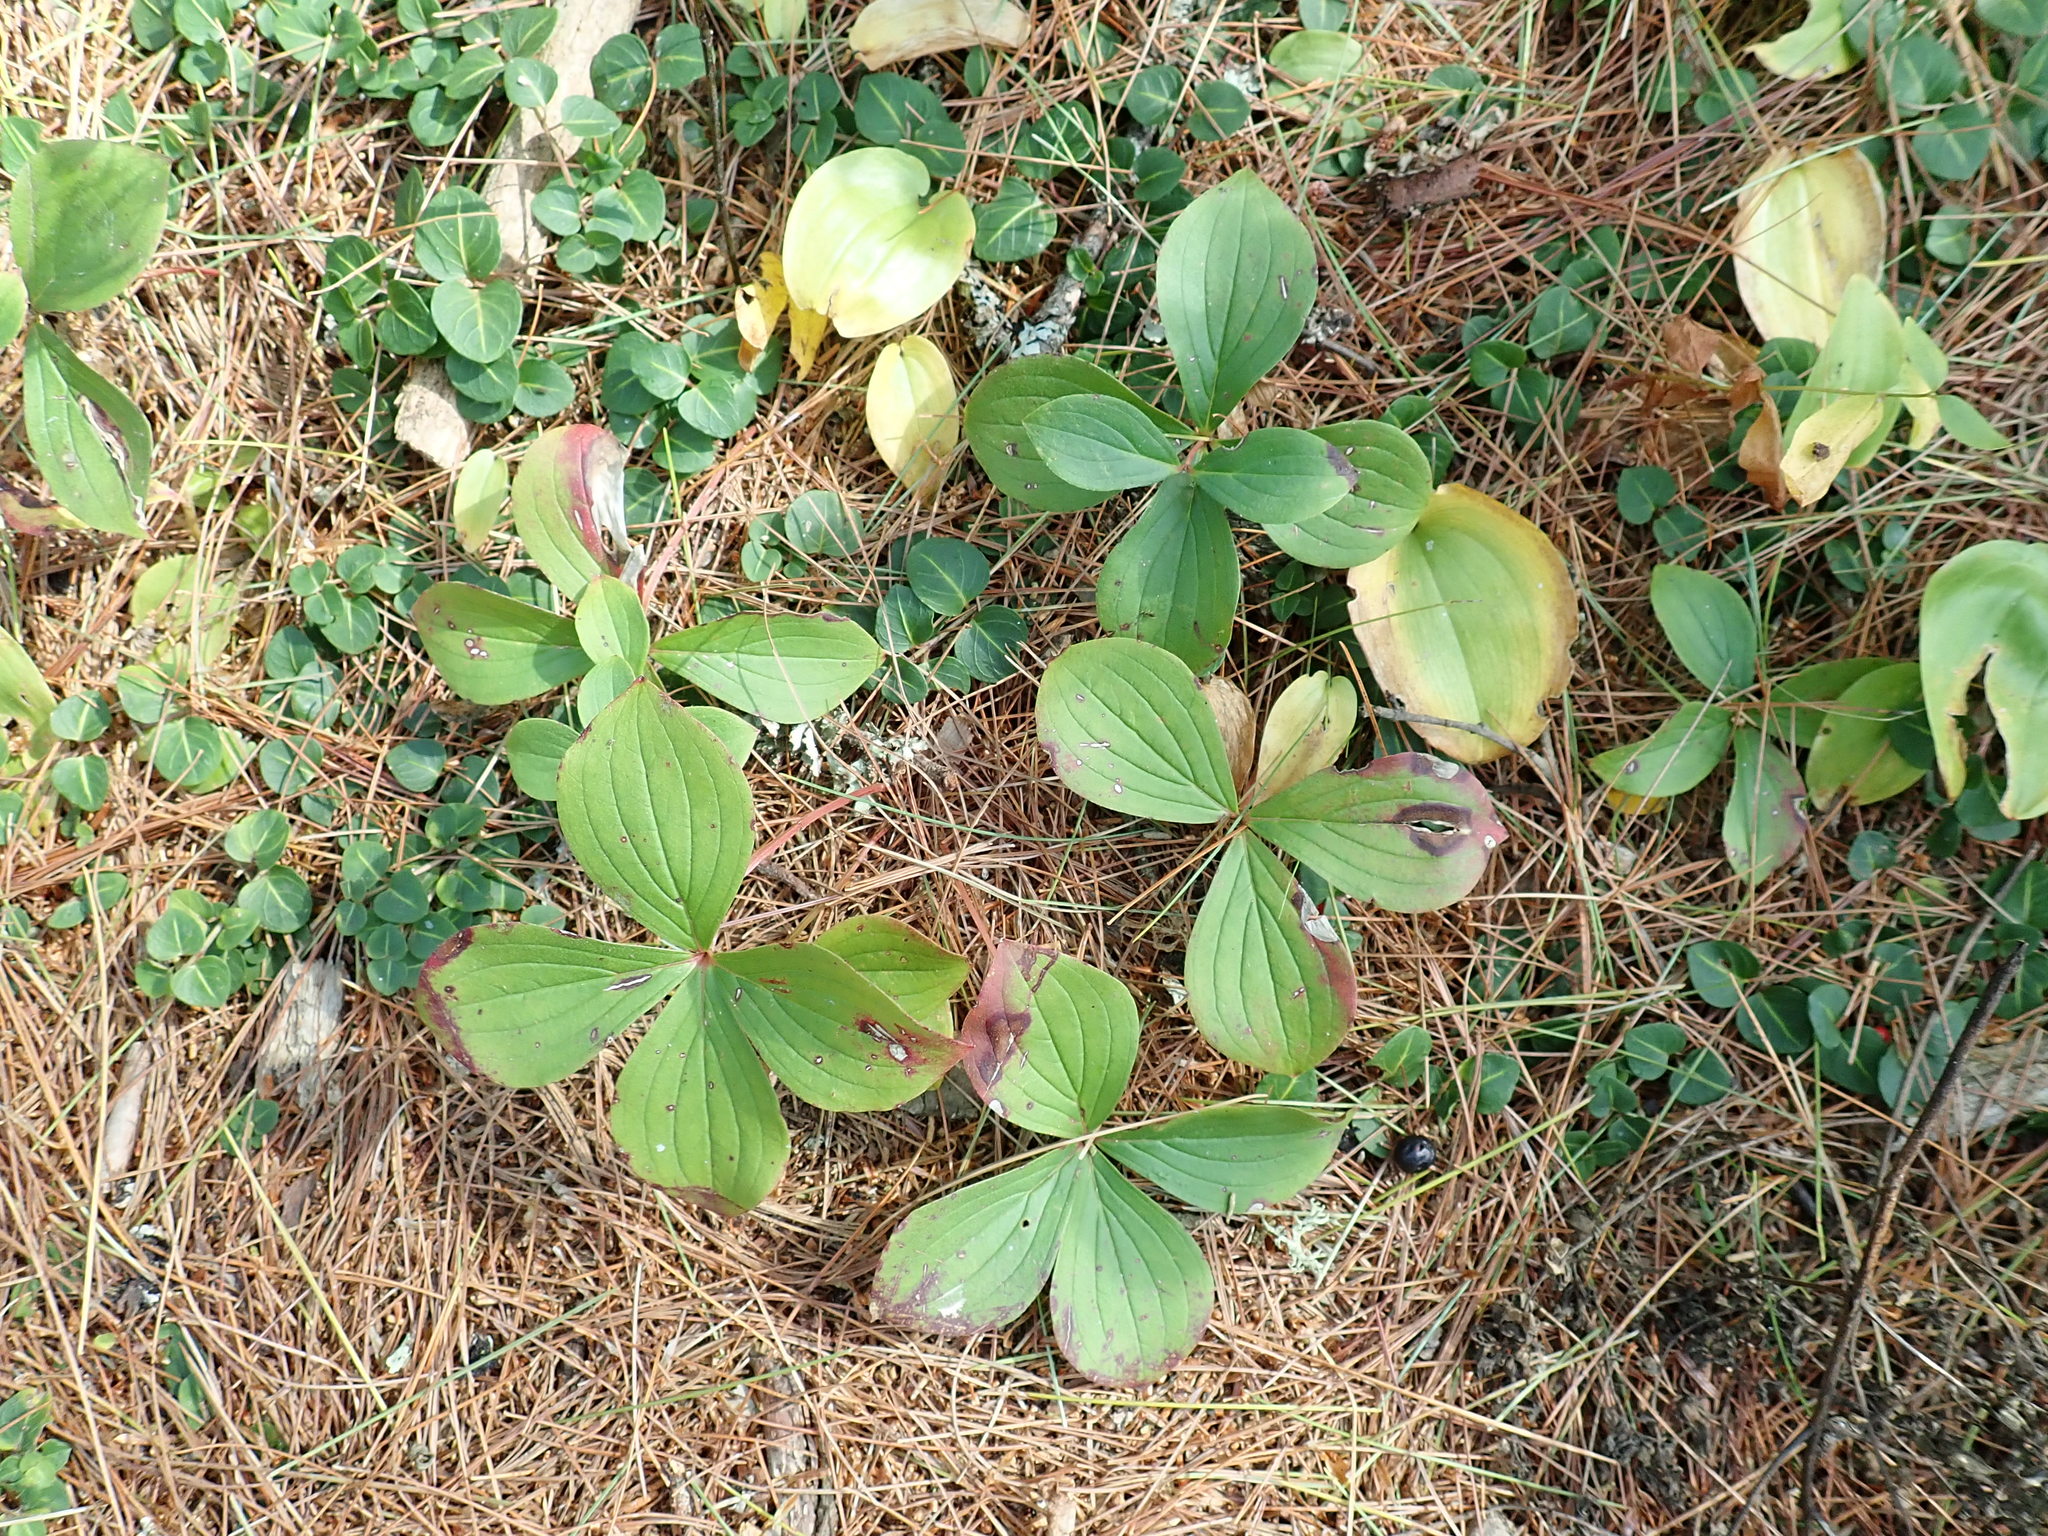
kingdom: Plantae
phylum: Tracheophyta
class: Magnoliopsida
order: Cornales
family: Cornaceae
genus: Cornus
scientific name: Cornus canadensis
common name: Creeping dogwood
